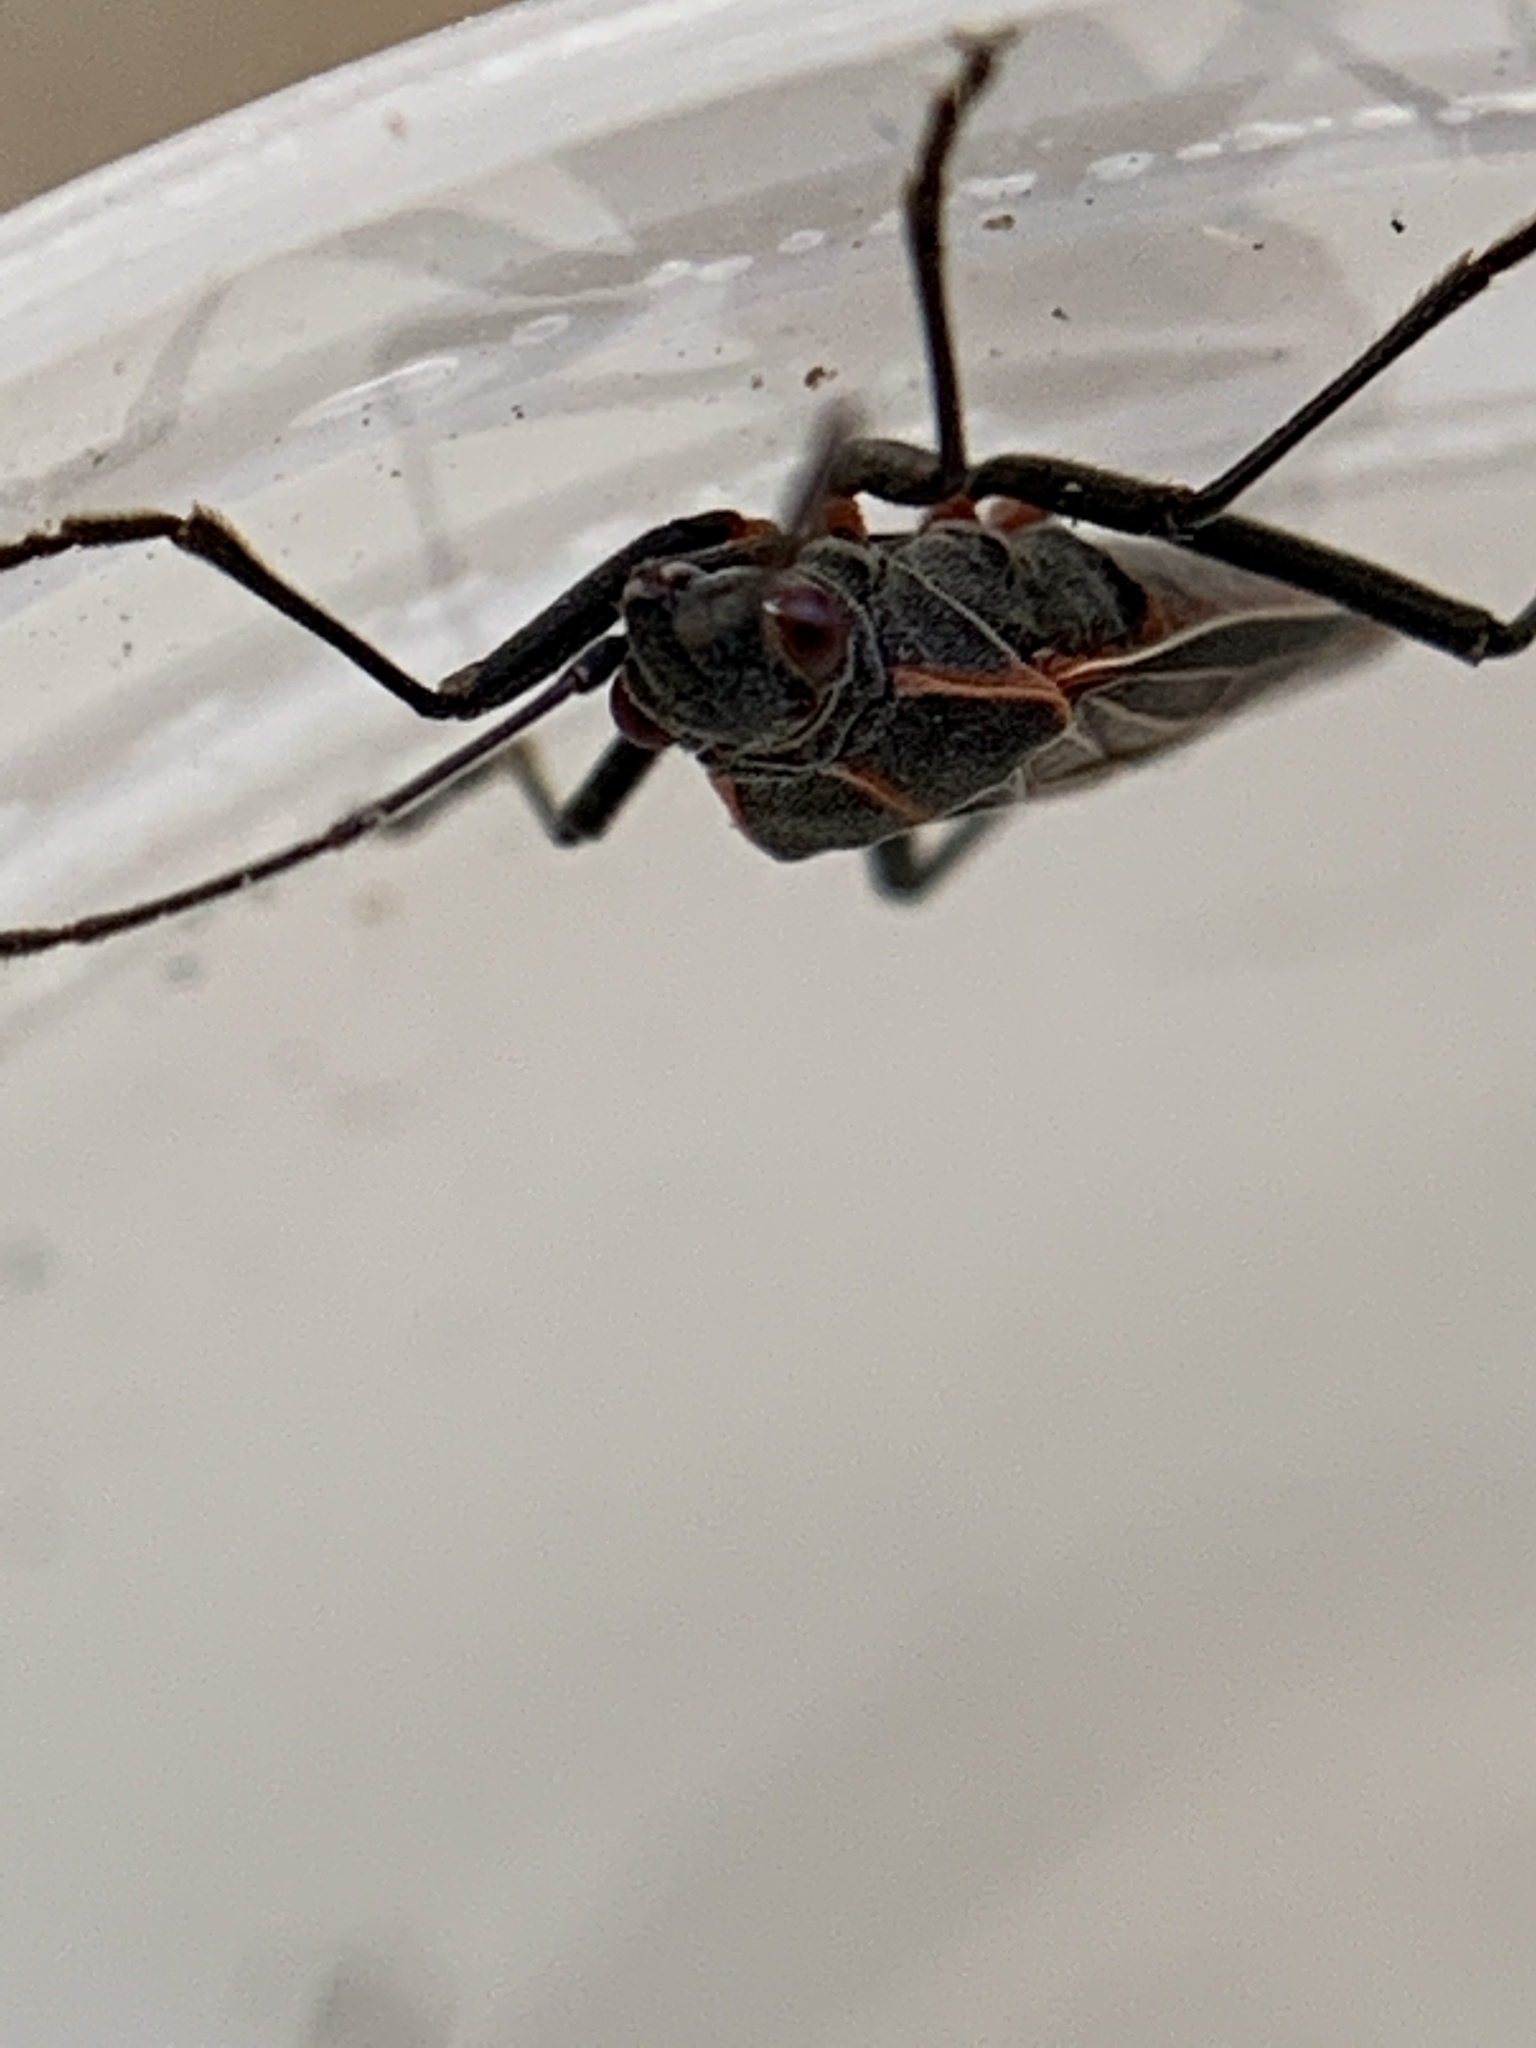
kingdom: Animalia
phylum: Arthropoda
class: Insecta
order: Hemiptera
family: Rhopalidae
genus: Boisea
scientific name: Boisea rubrolineata
